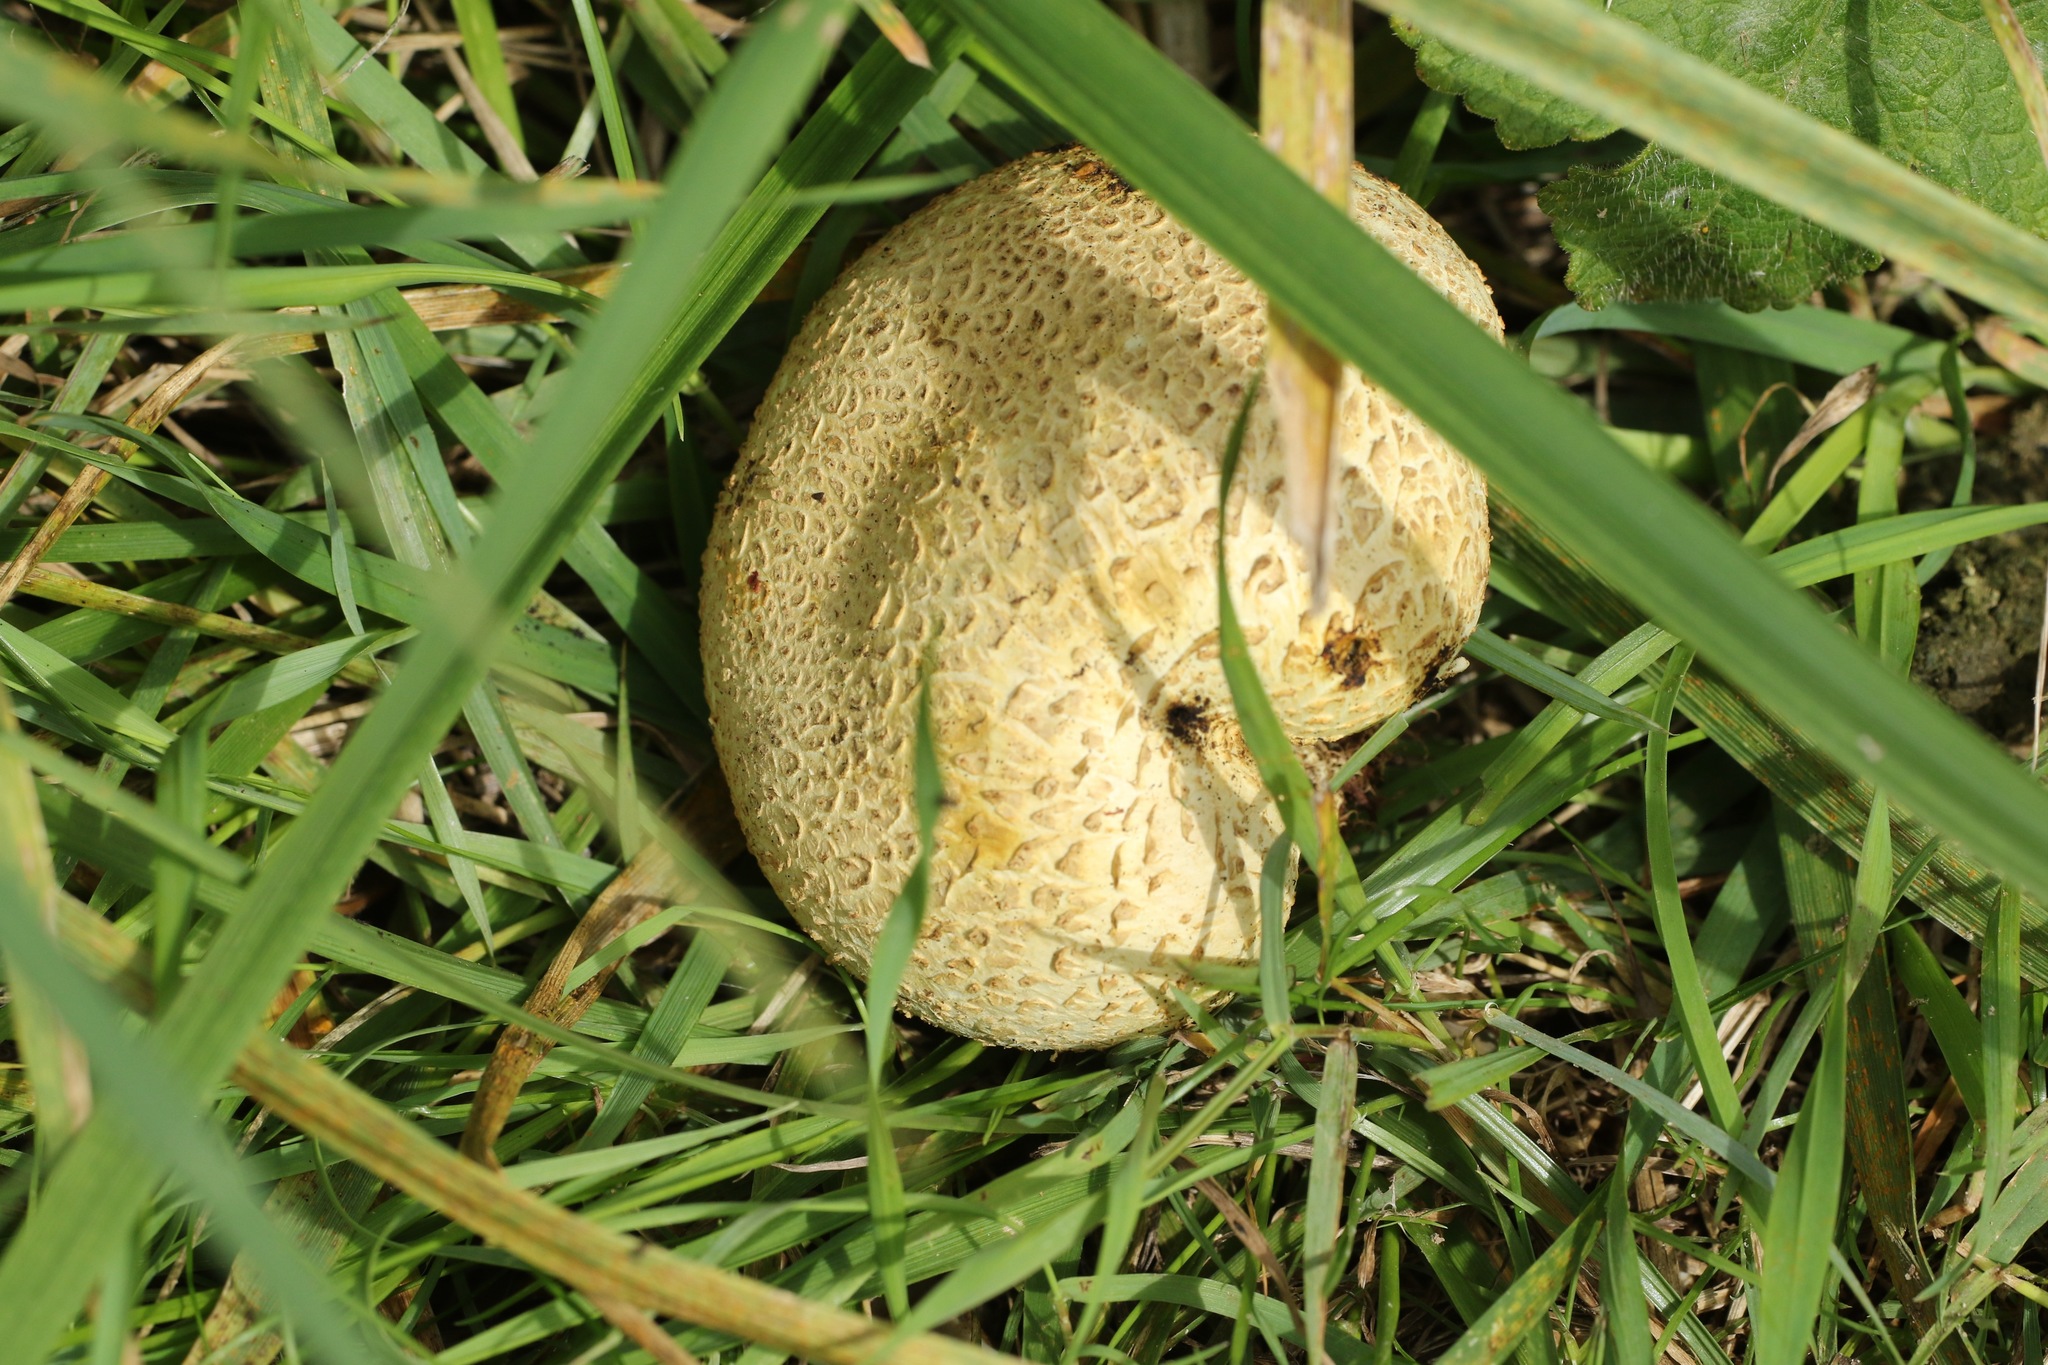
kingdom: Fungi
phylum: Basidiomycota
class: Agaricomycetes
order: Boletales
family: Sclerodermataceae
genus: Scleroderma
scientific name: Scleroderma citrinum
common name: Common earthball
